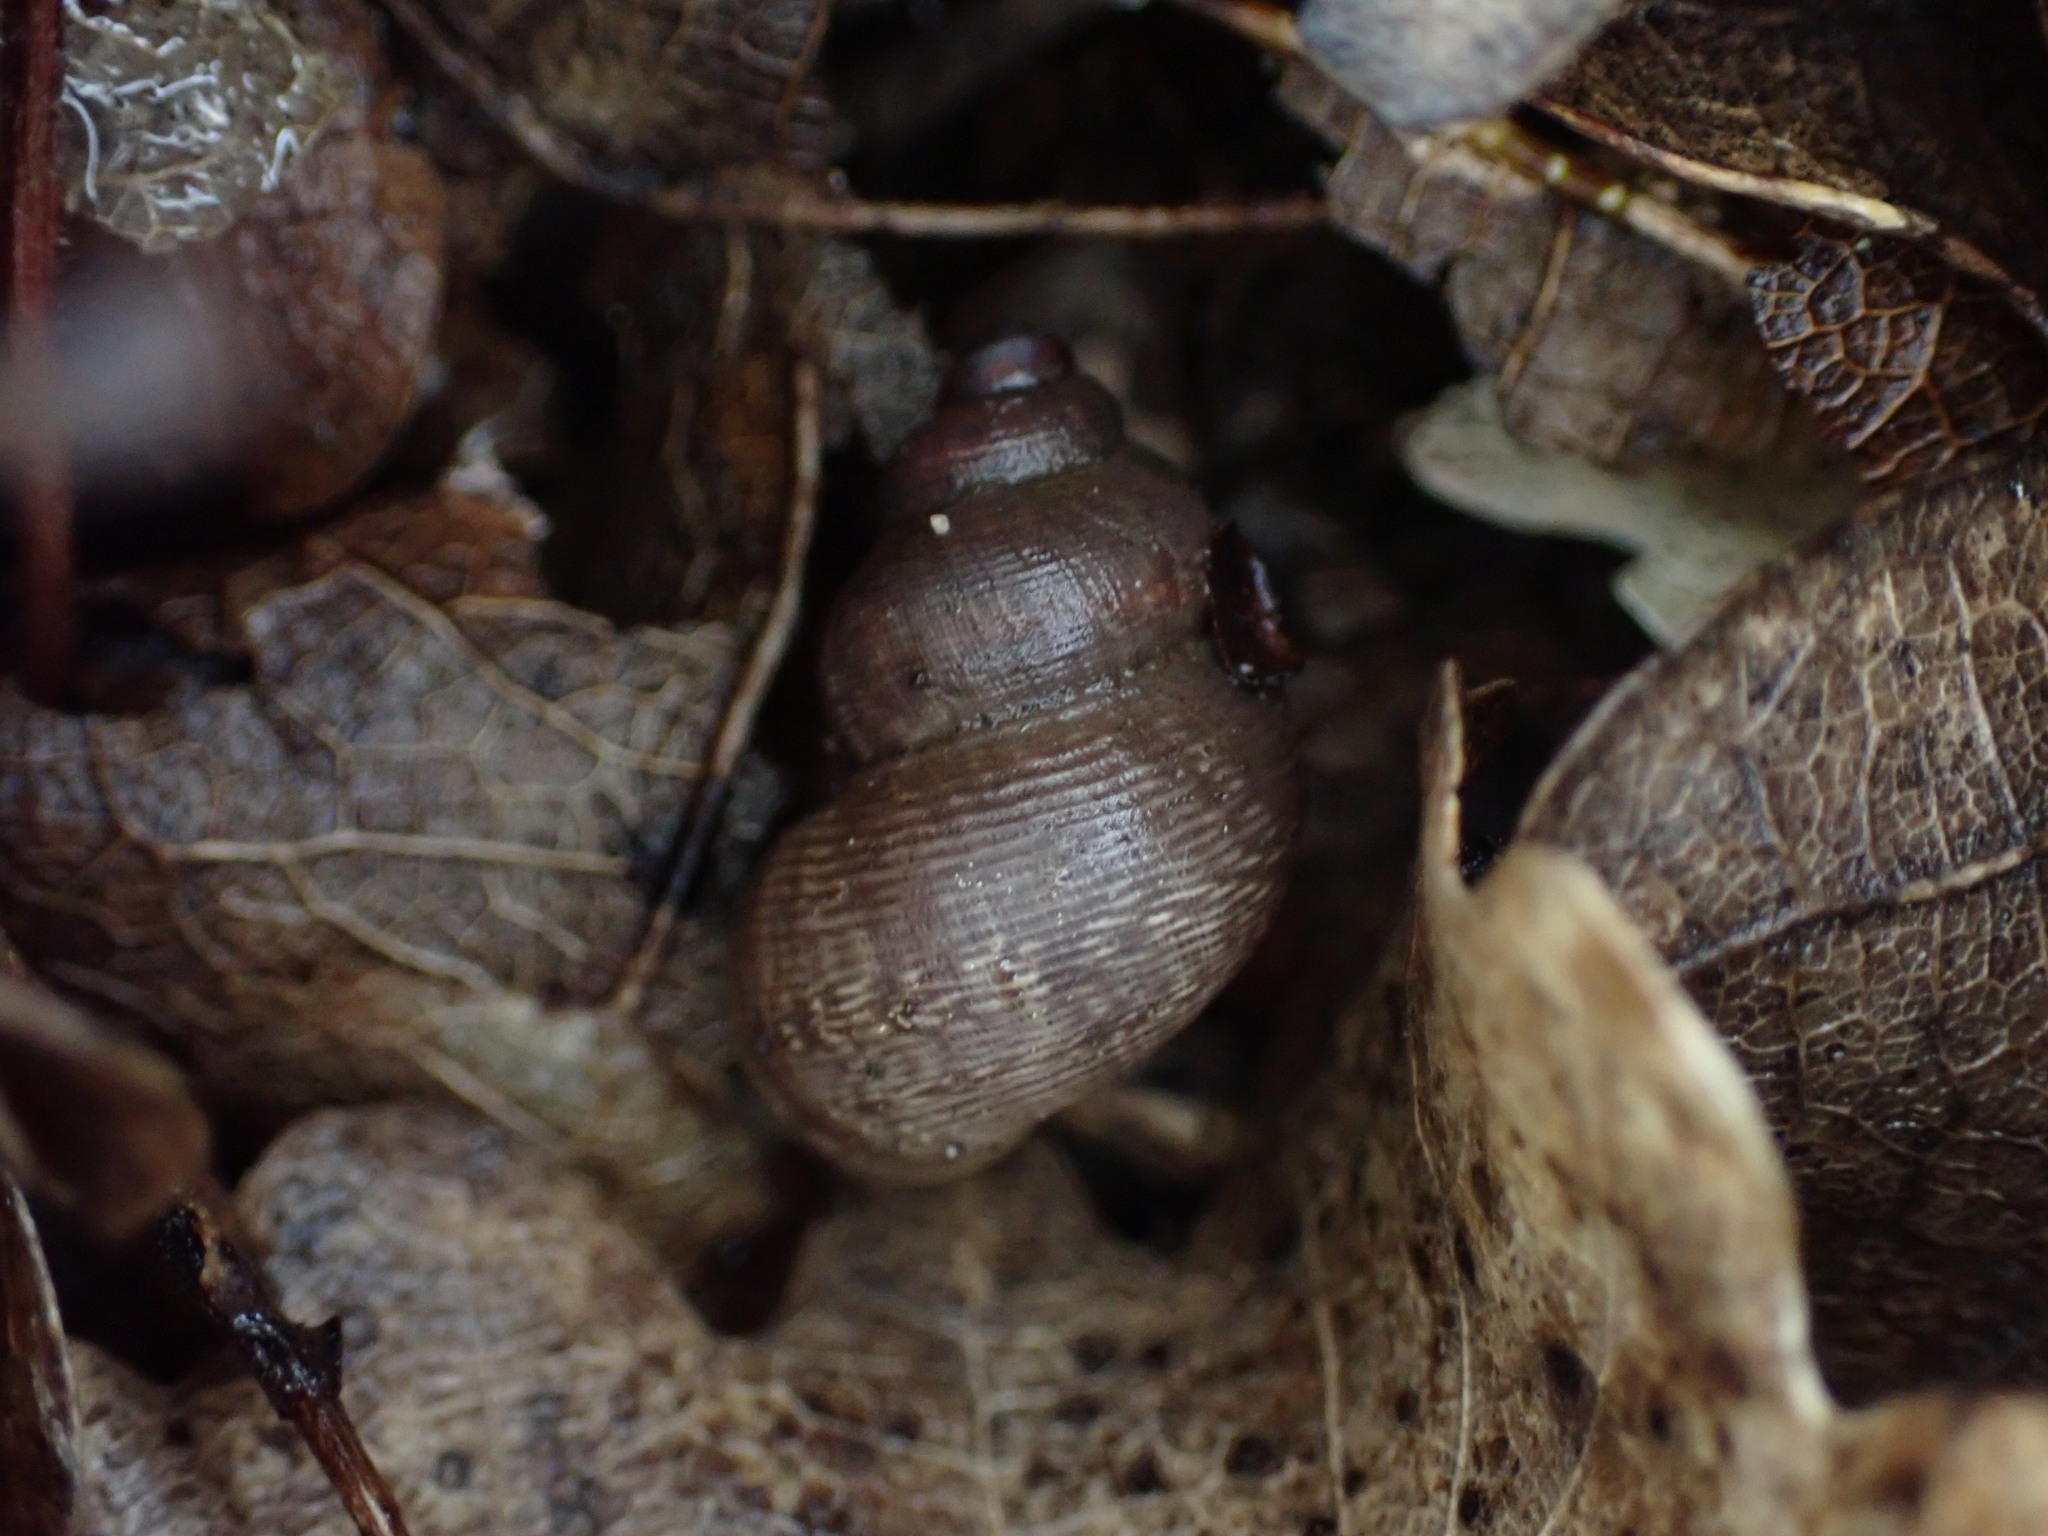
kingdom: Animalia
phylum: Mollusca
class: Gastropoda
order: Littorinimorpha
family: Pomatiidae
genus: Pomatias
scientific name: Pomatias elegans
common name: Red-mouthed snail
